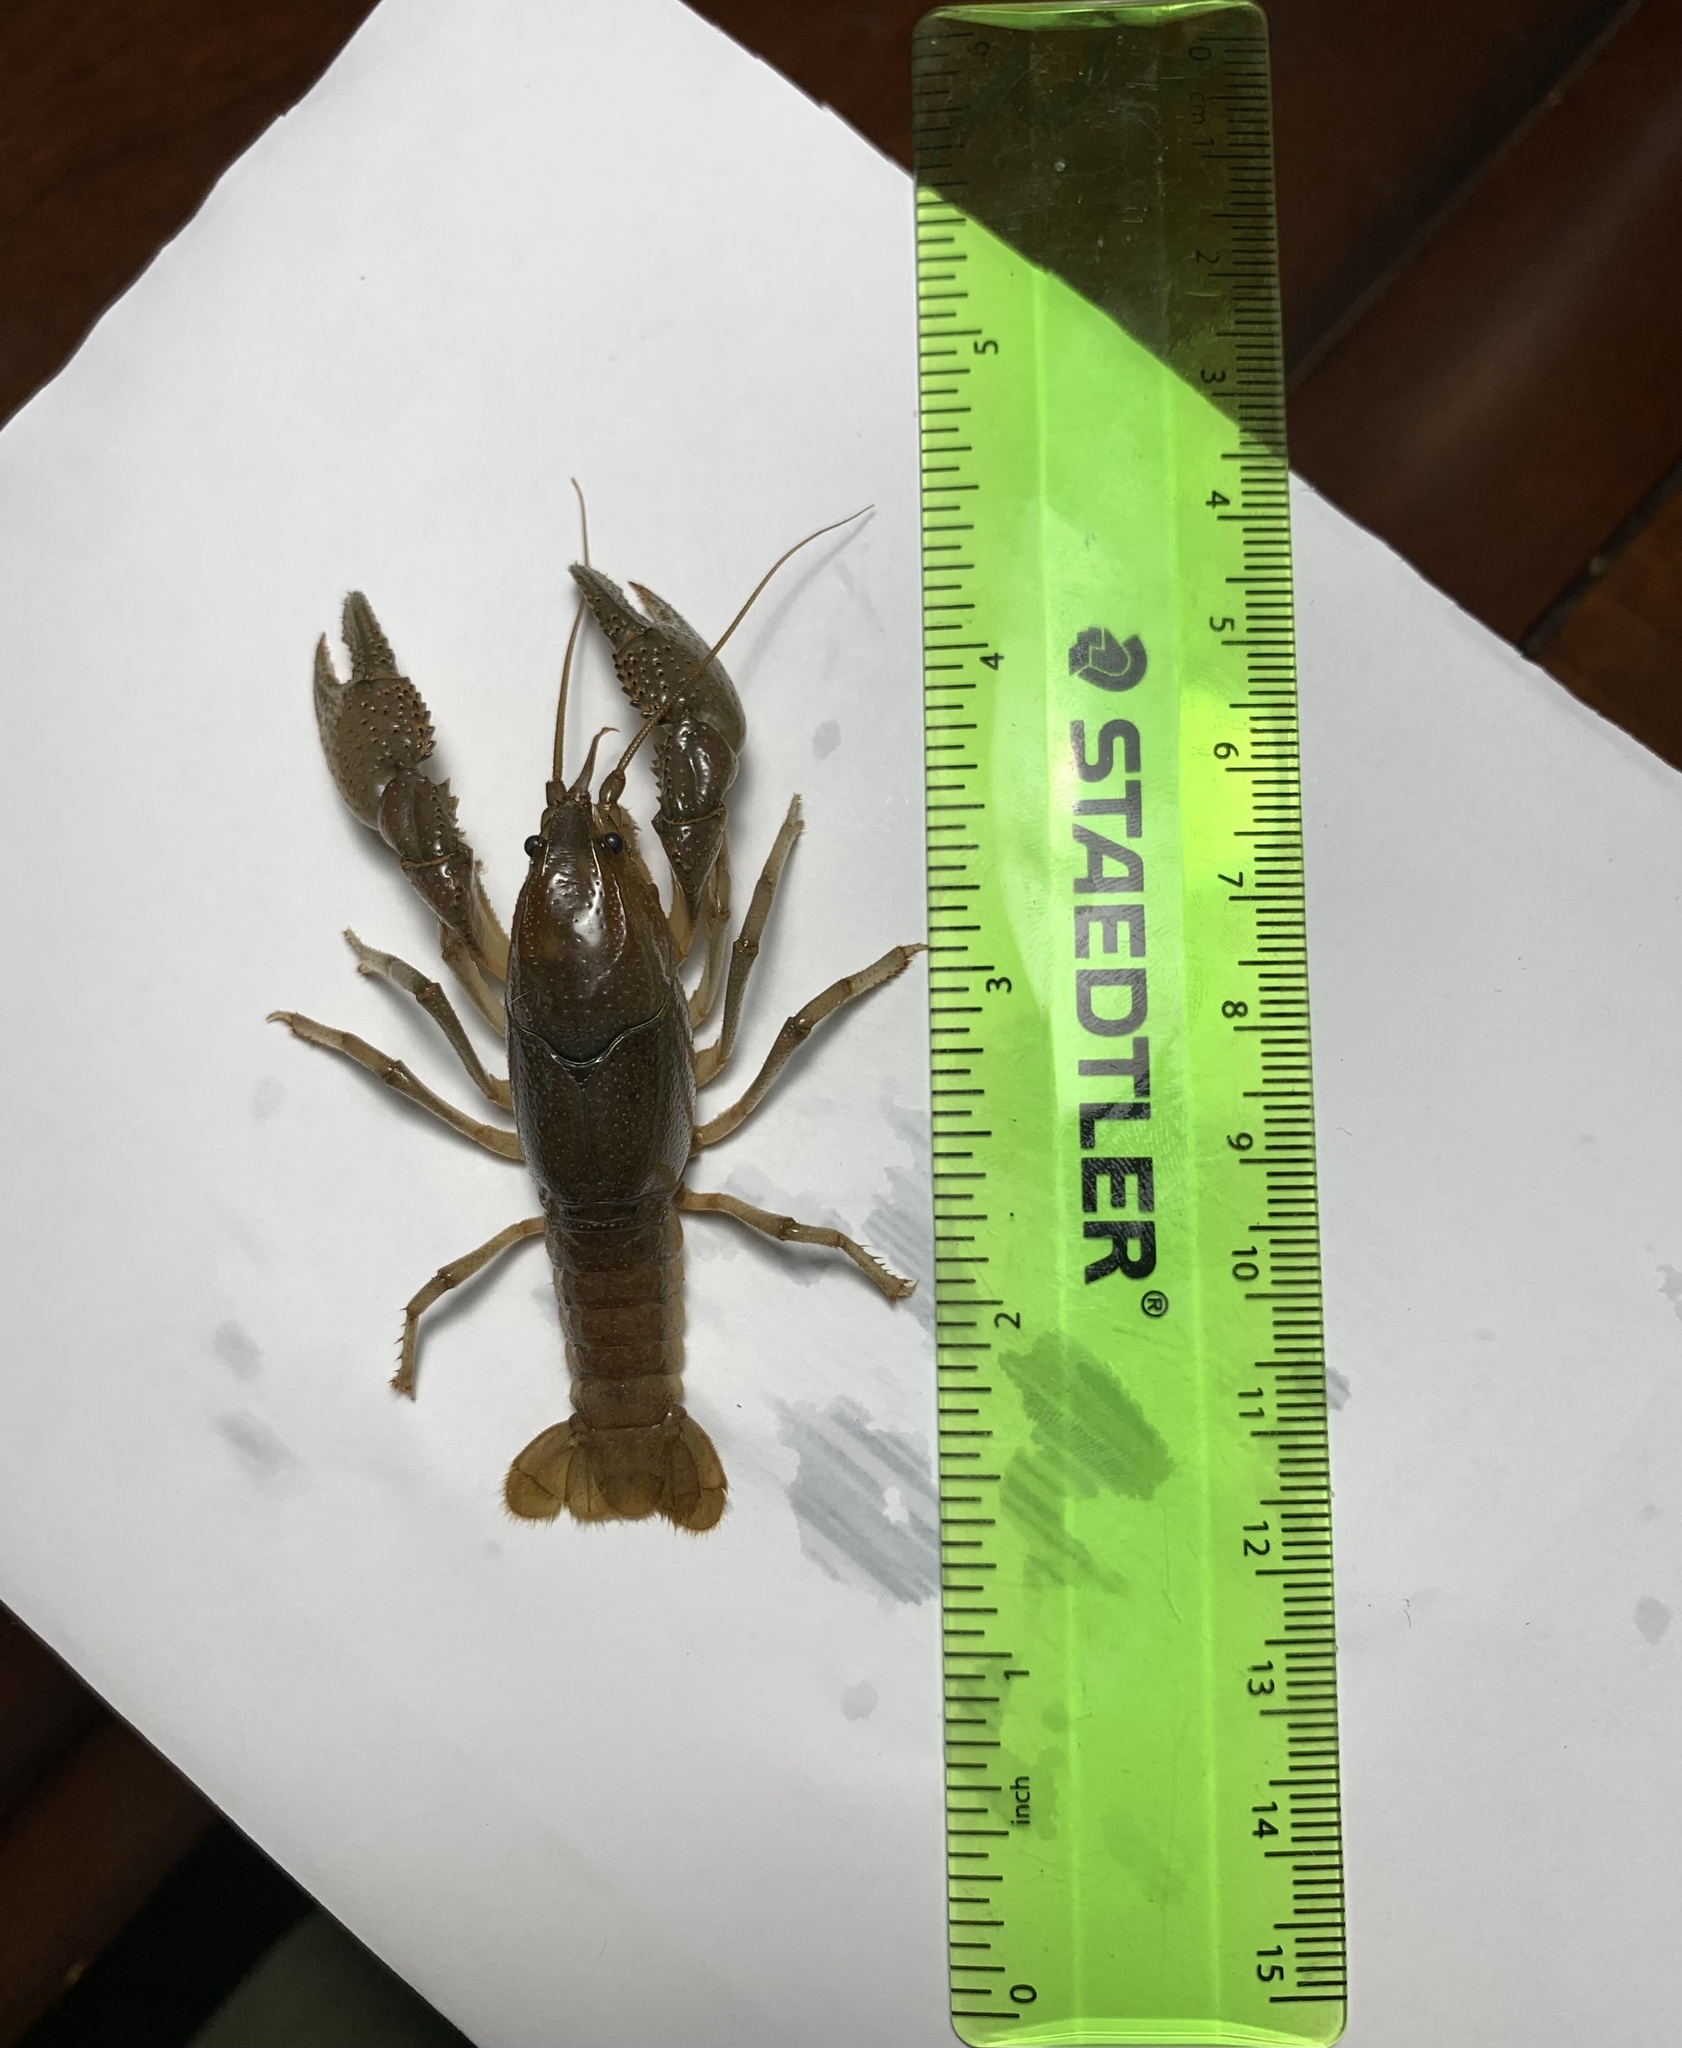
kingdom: Animalia
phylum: Arthropoda
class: Malacostraca
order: Decapoda
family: Cambaridae
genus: Fallicambarus
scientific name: Fallicambarus houstonensis
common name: Houston burrowing crayfish
